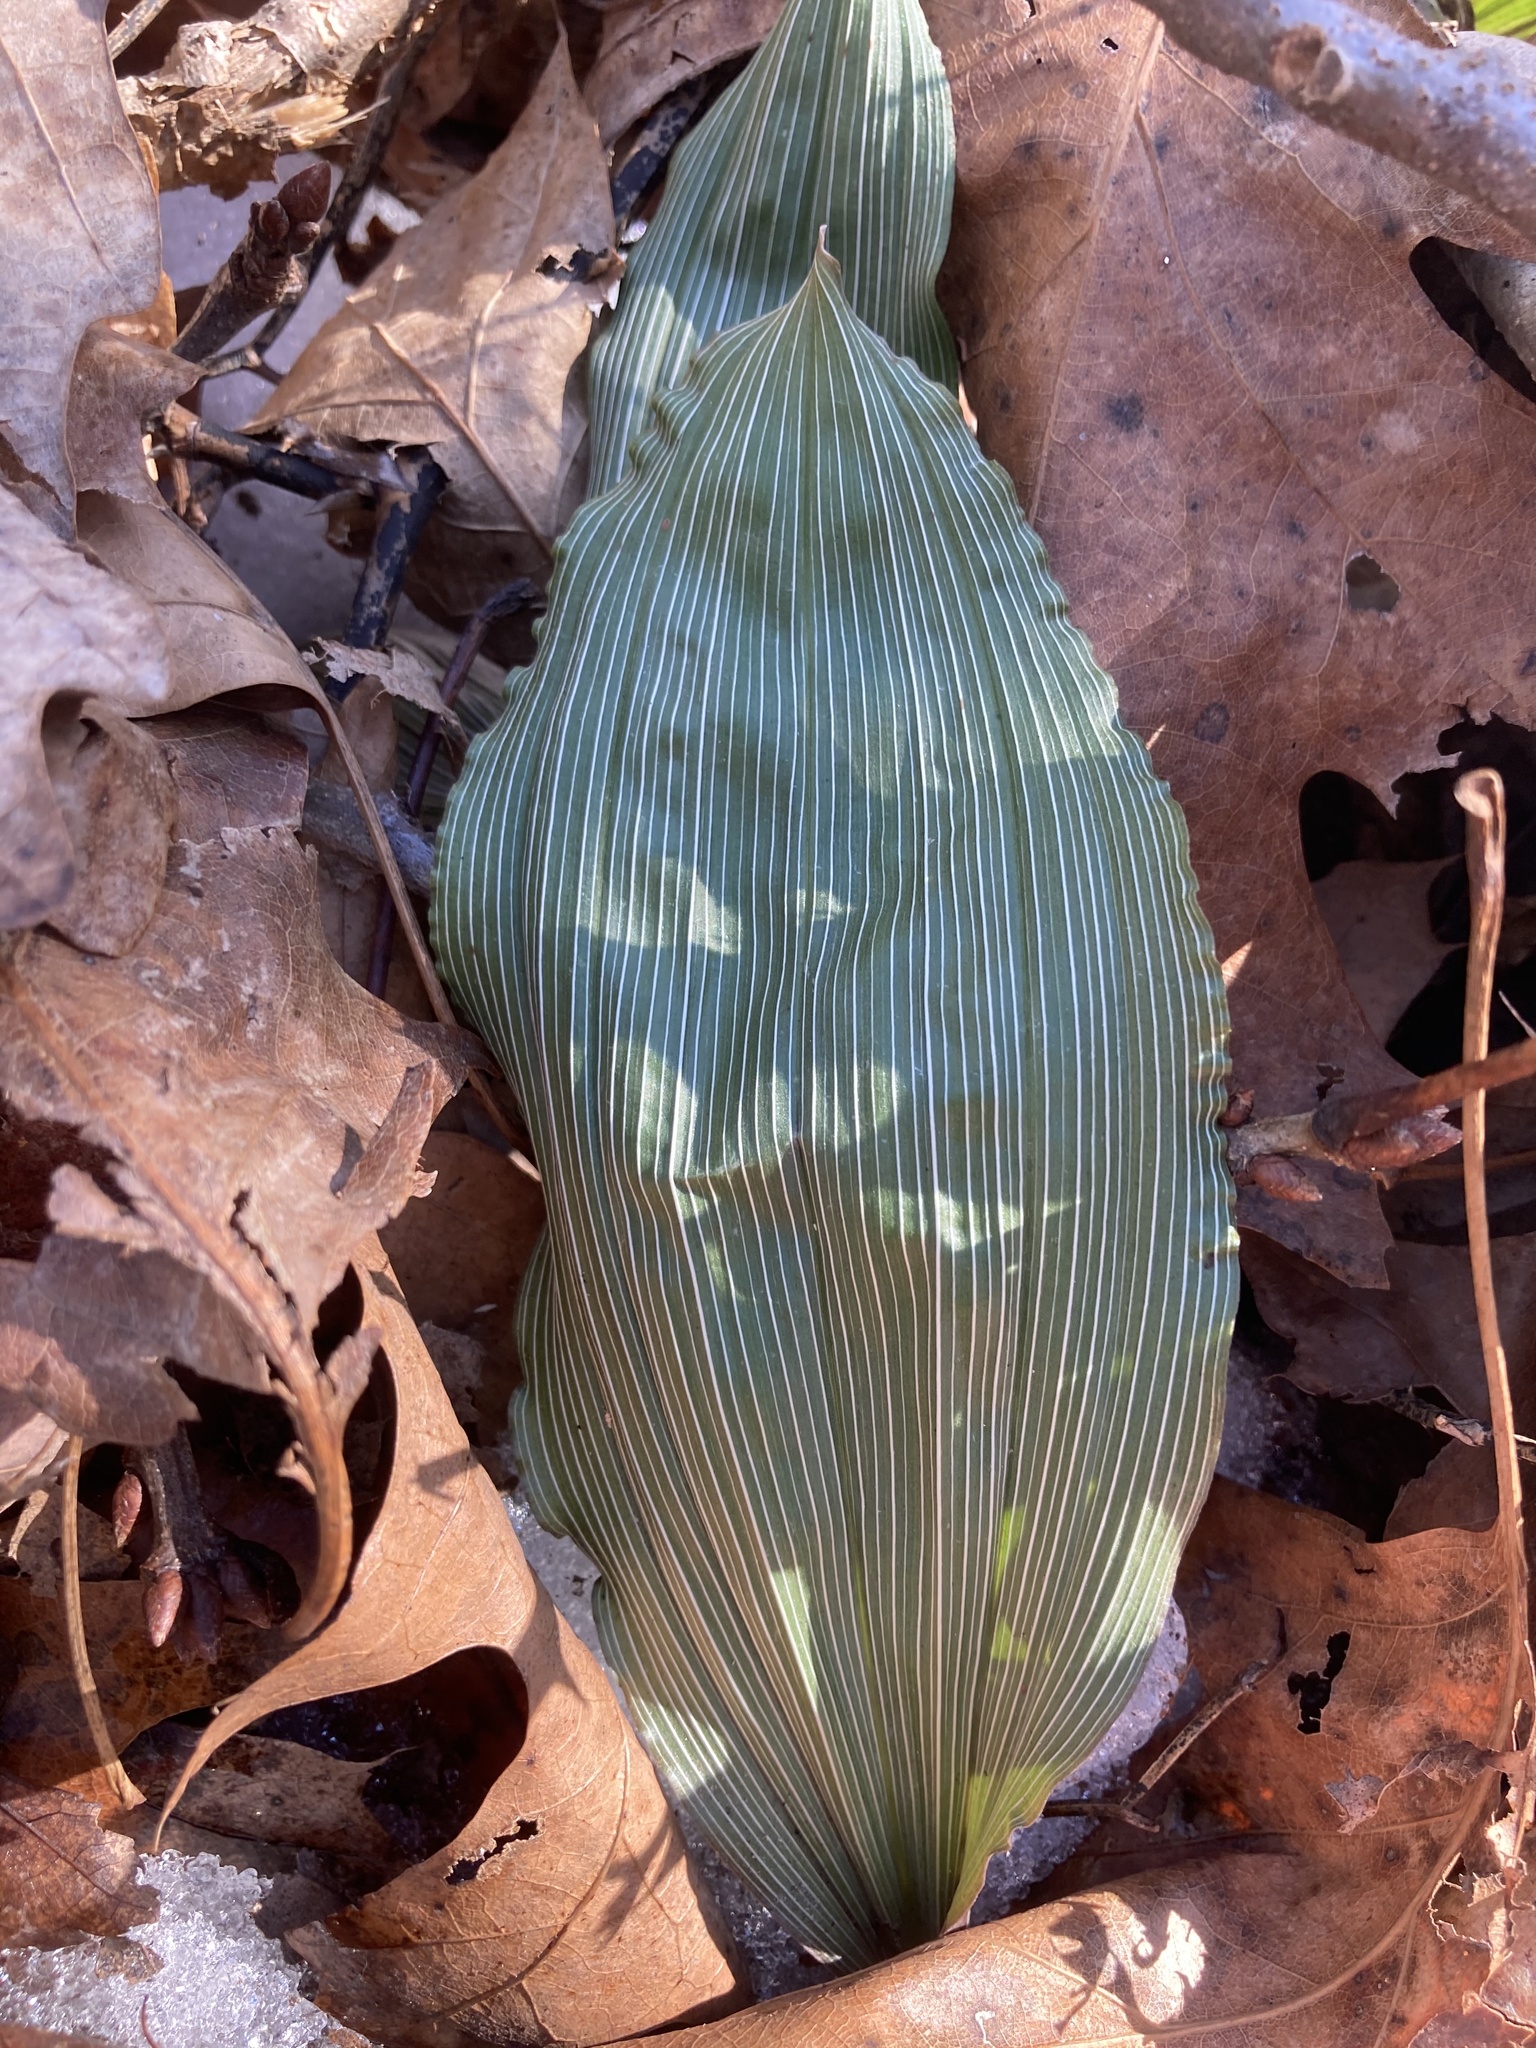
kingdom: Plantae
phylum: Tracheophyta
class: Liliopsida
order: Asparagales
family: Orchidaceae
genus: Aplectrum
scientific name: Aplectrum hyemale
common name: Adam-and-eve
